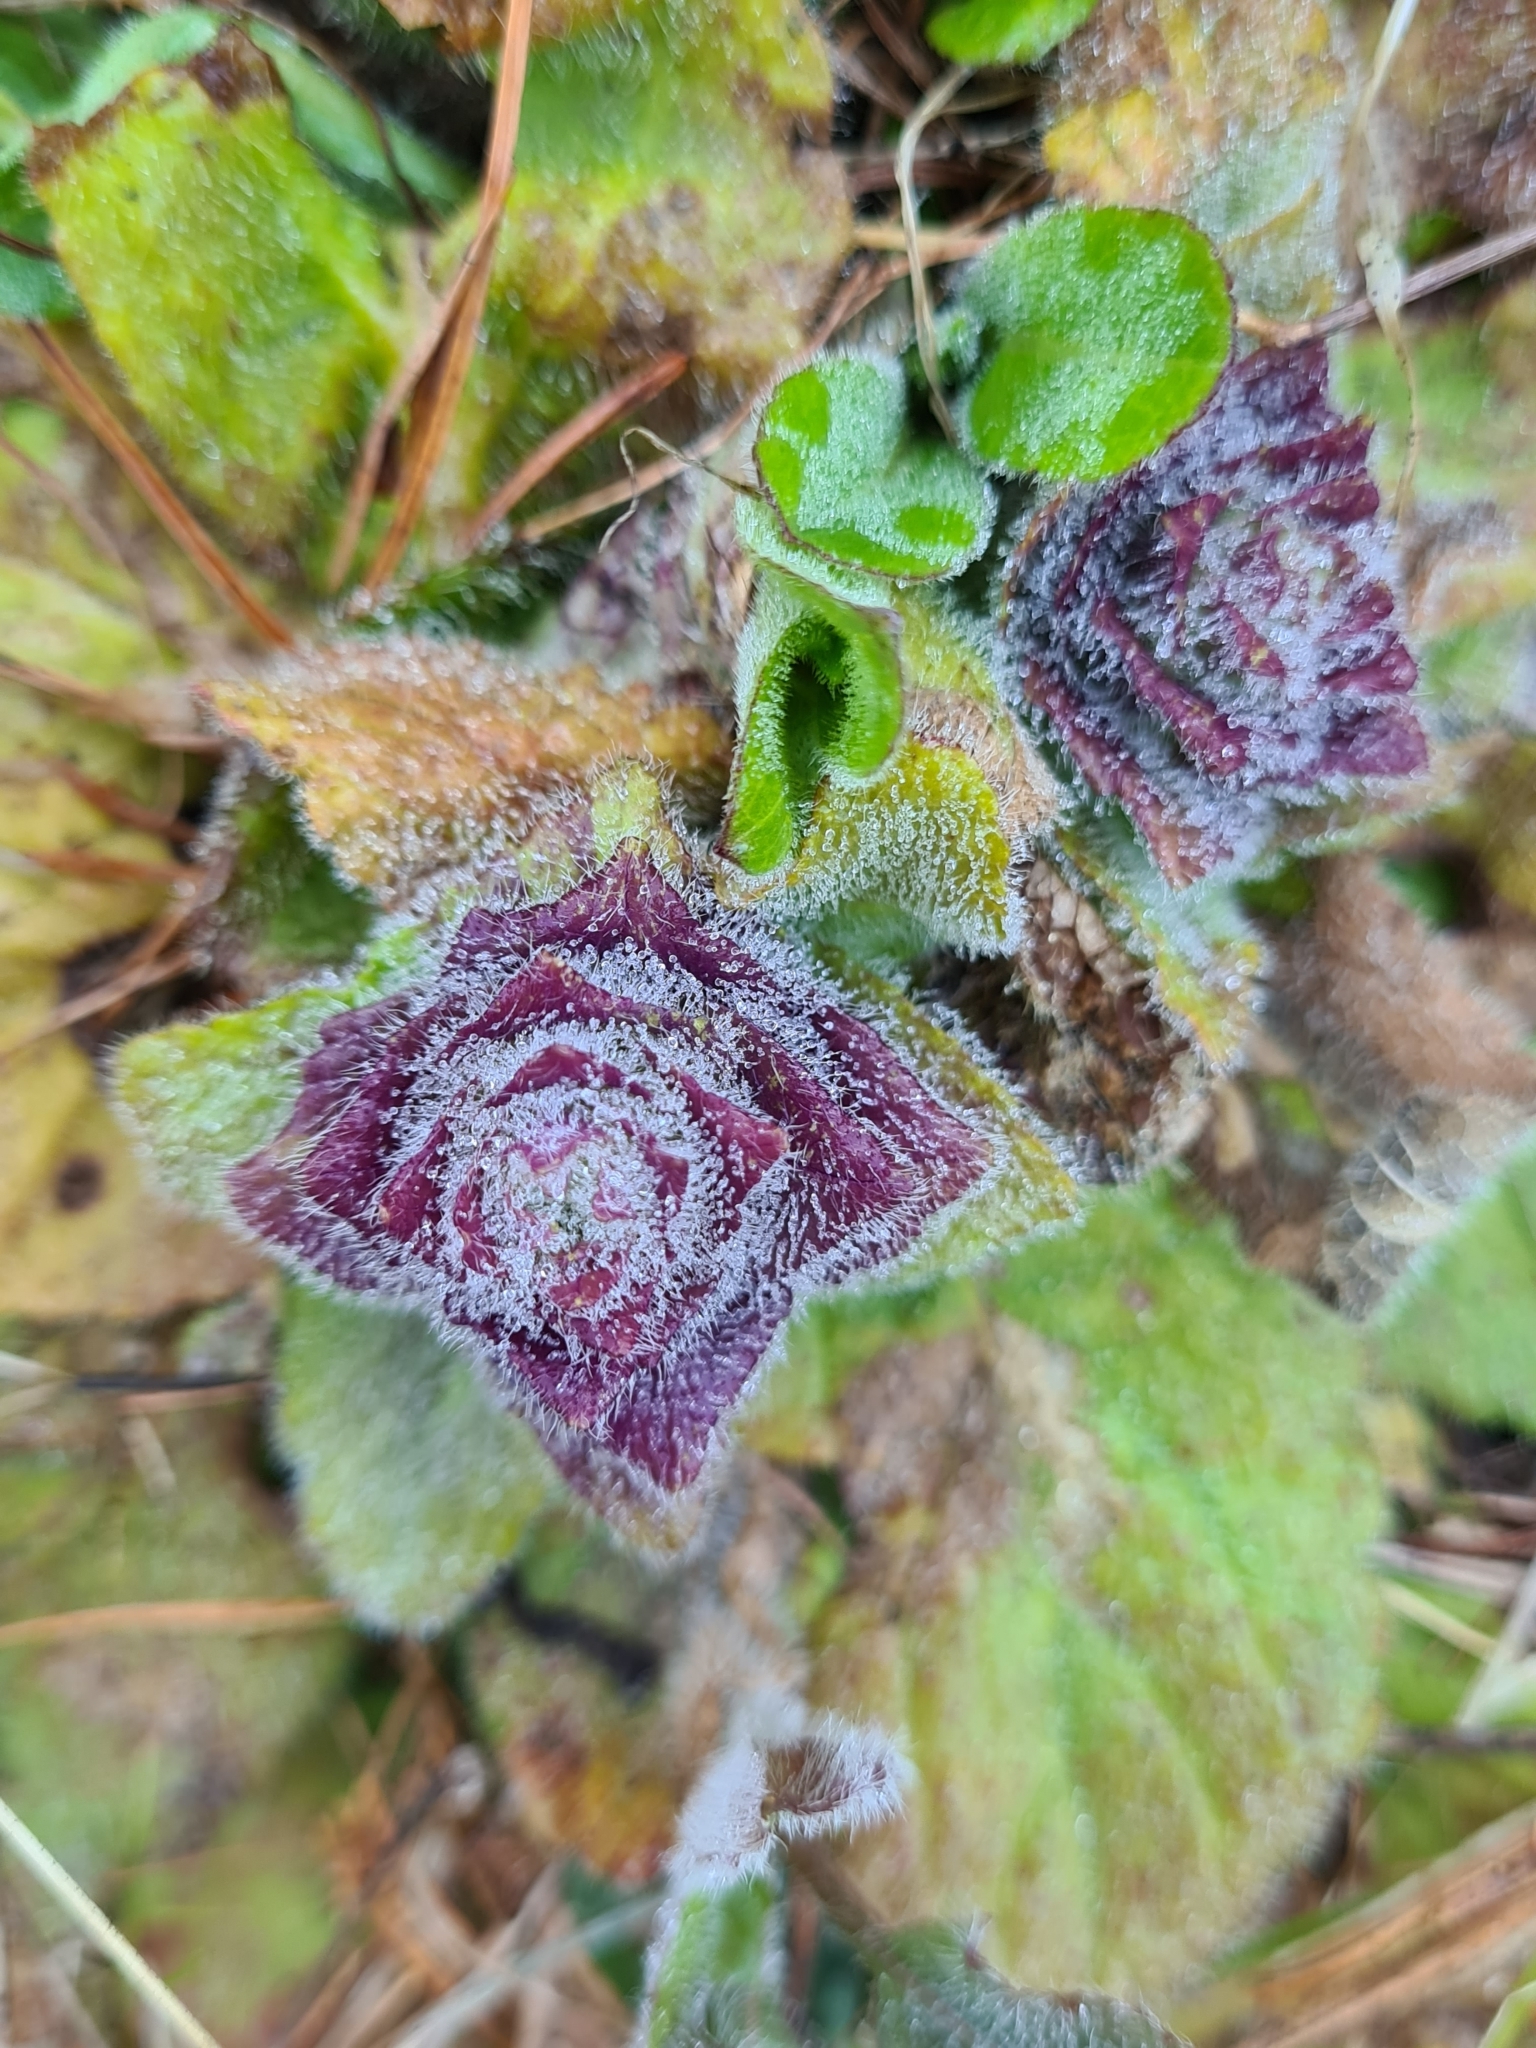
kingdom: Plantae
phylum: Tracheophyta
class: Magnoliopsida
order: Lamiales
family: Lamiaceae
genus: Ajuga
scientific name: Ajuga pyramidalis
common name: Pyramid bugle
